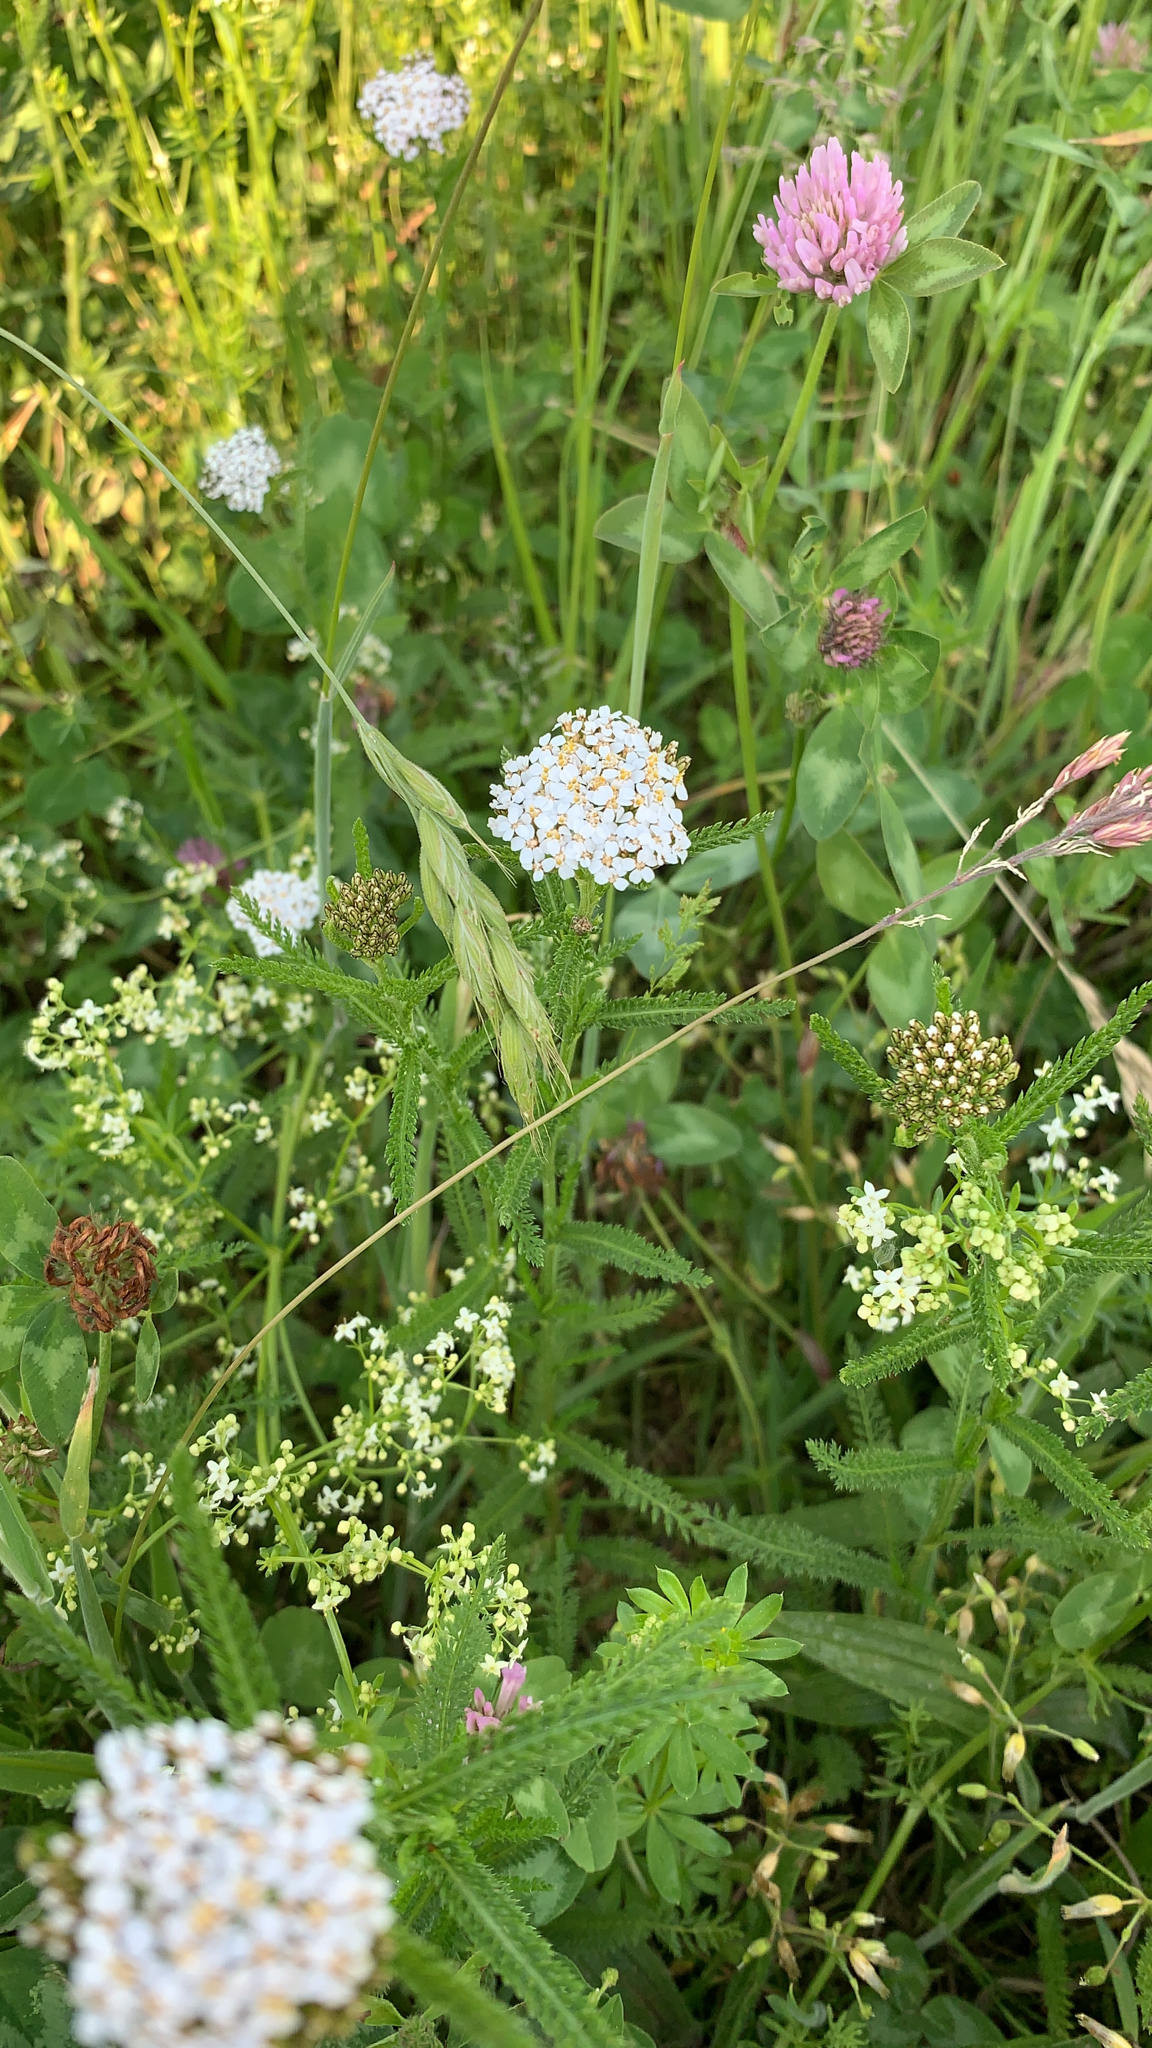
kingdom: Plantae
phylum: Tracheophyta
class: Magnoliopsida
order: Asterales
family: Asteraceae
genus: Achillea
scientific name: Achillea millefolium
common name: Yarrow
